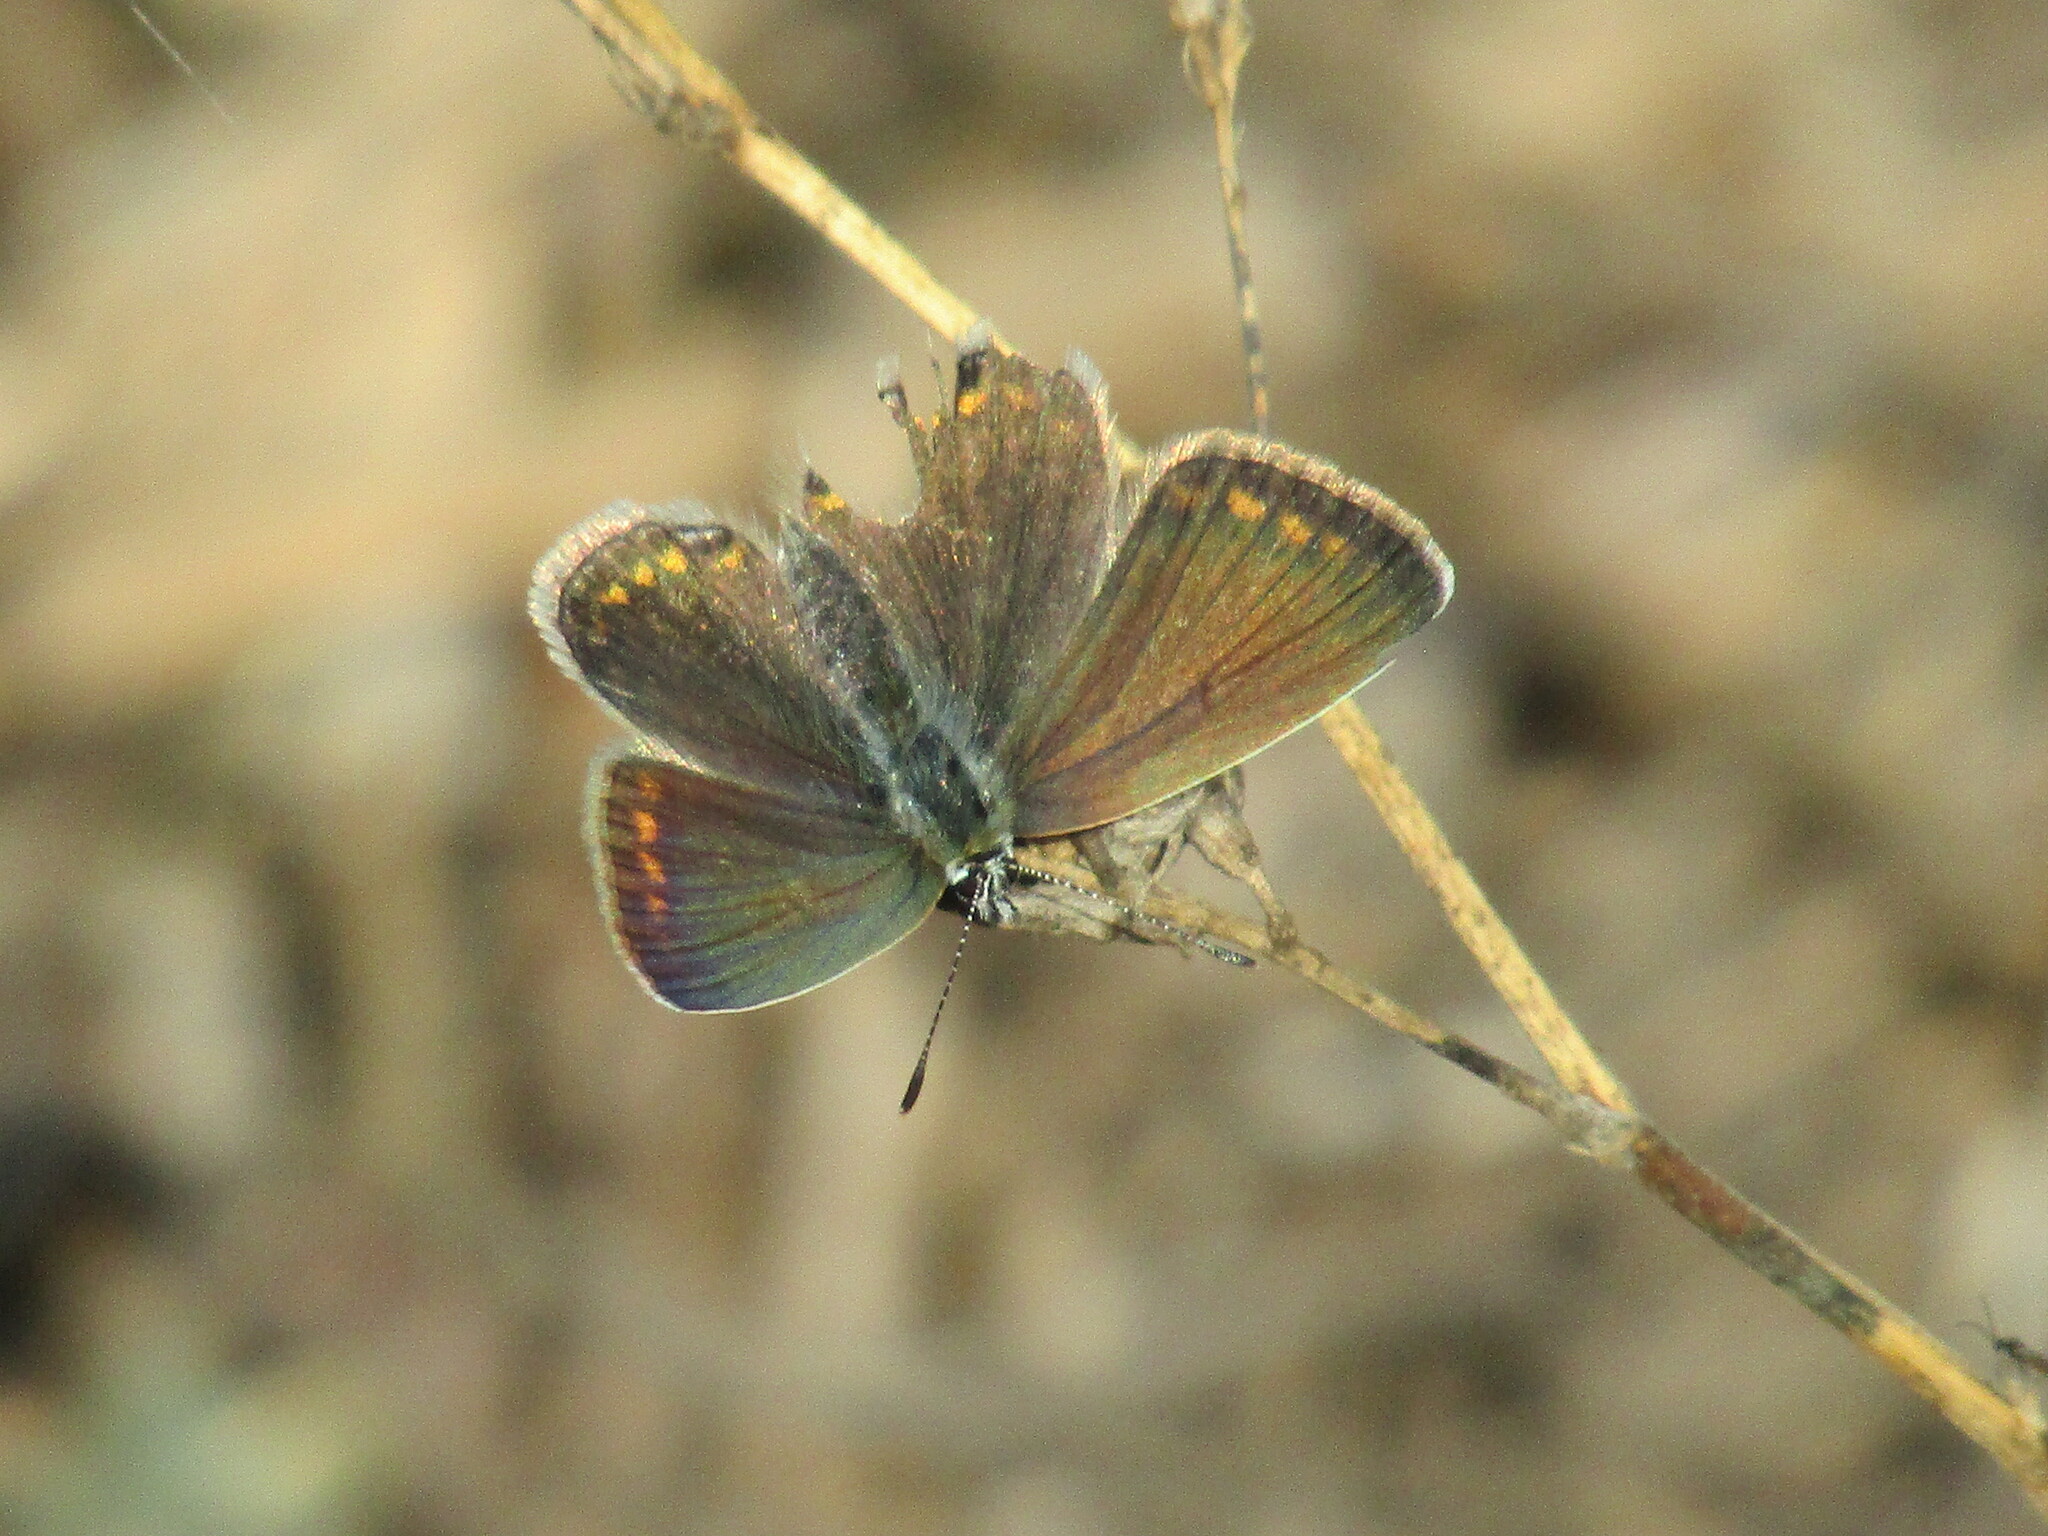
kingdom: Animalia
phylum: Arthropoda
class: Insecta
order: Lepidoptera
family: Lycaenidae
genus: Polyommatus
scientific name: Polyommatus icarus
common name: Common blue
